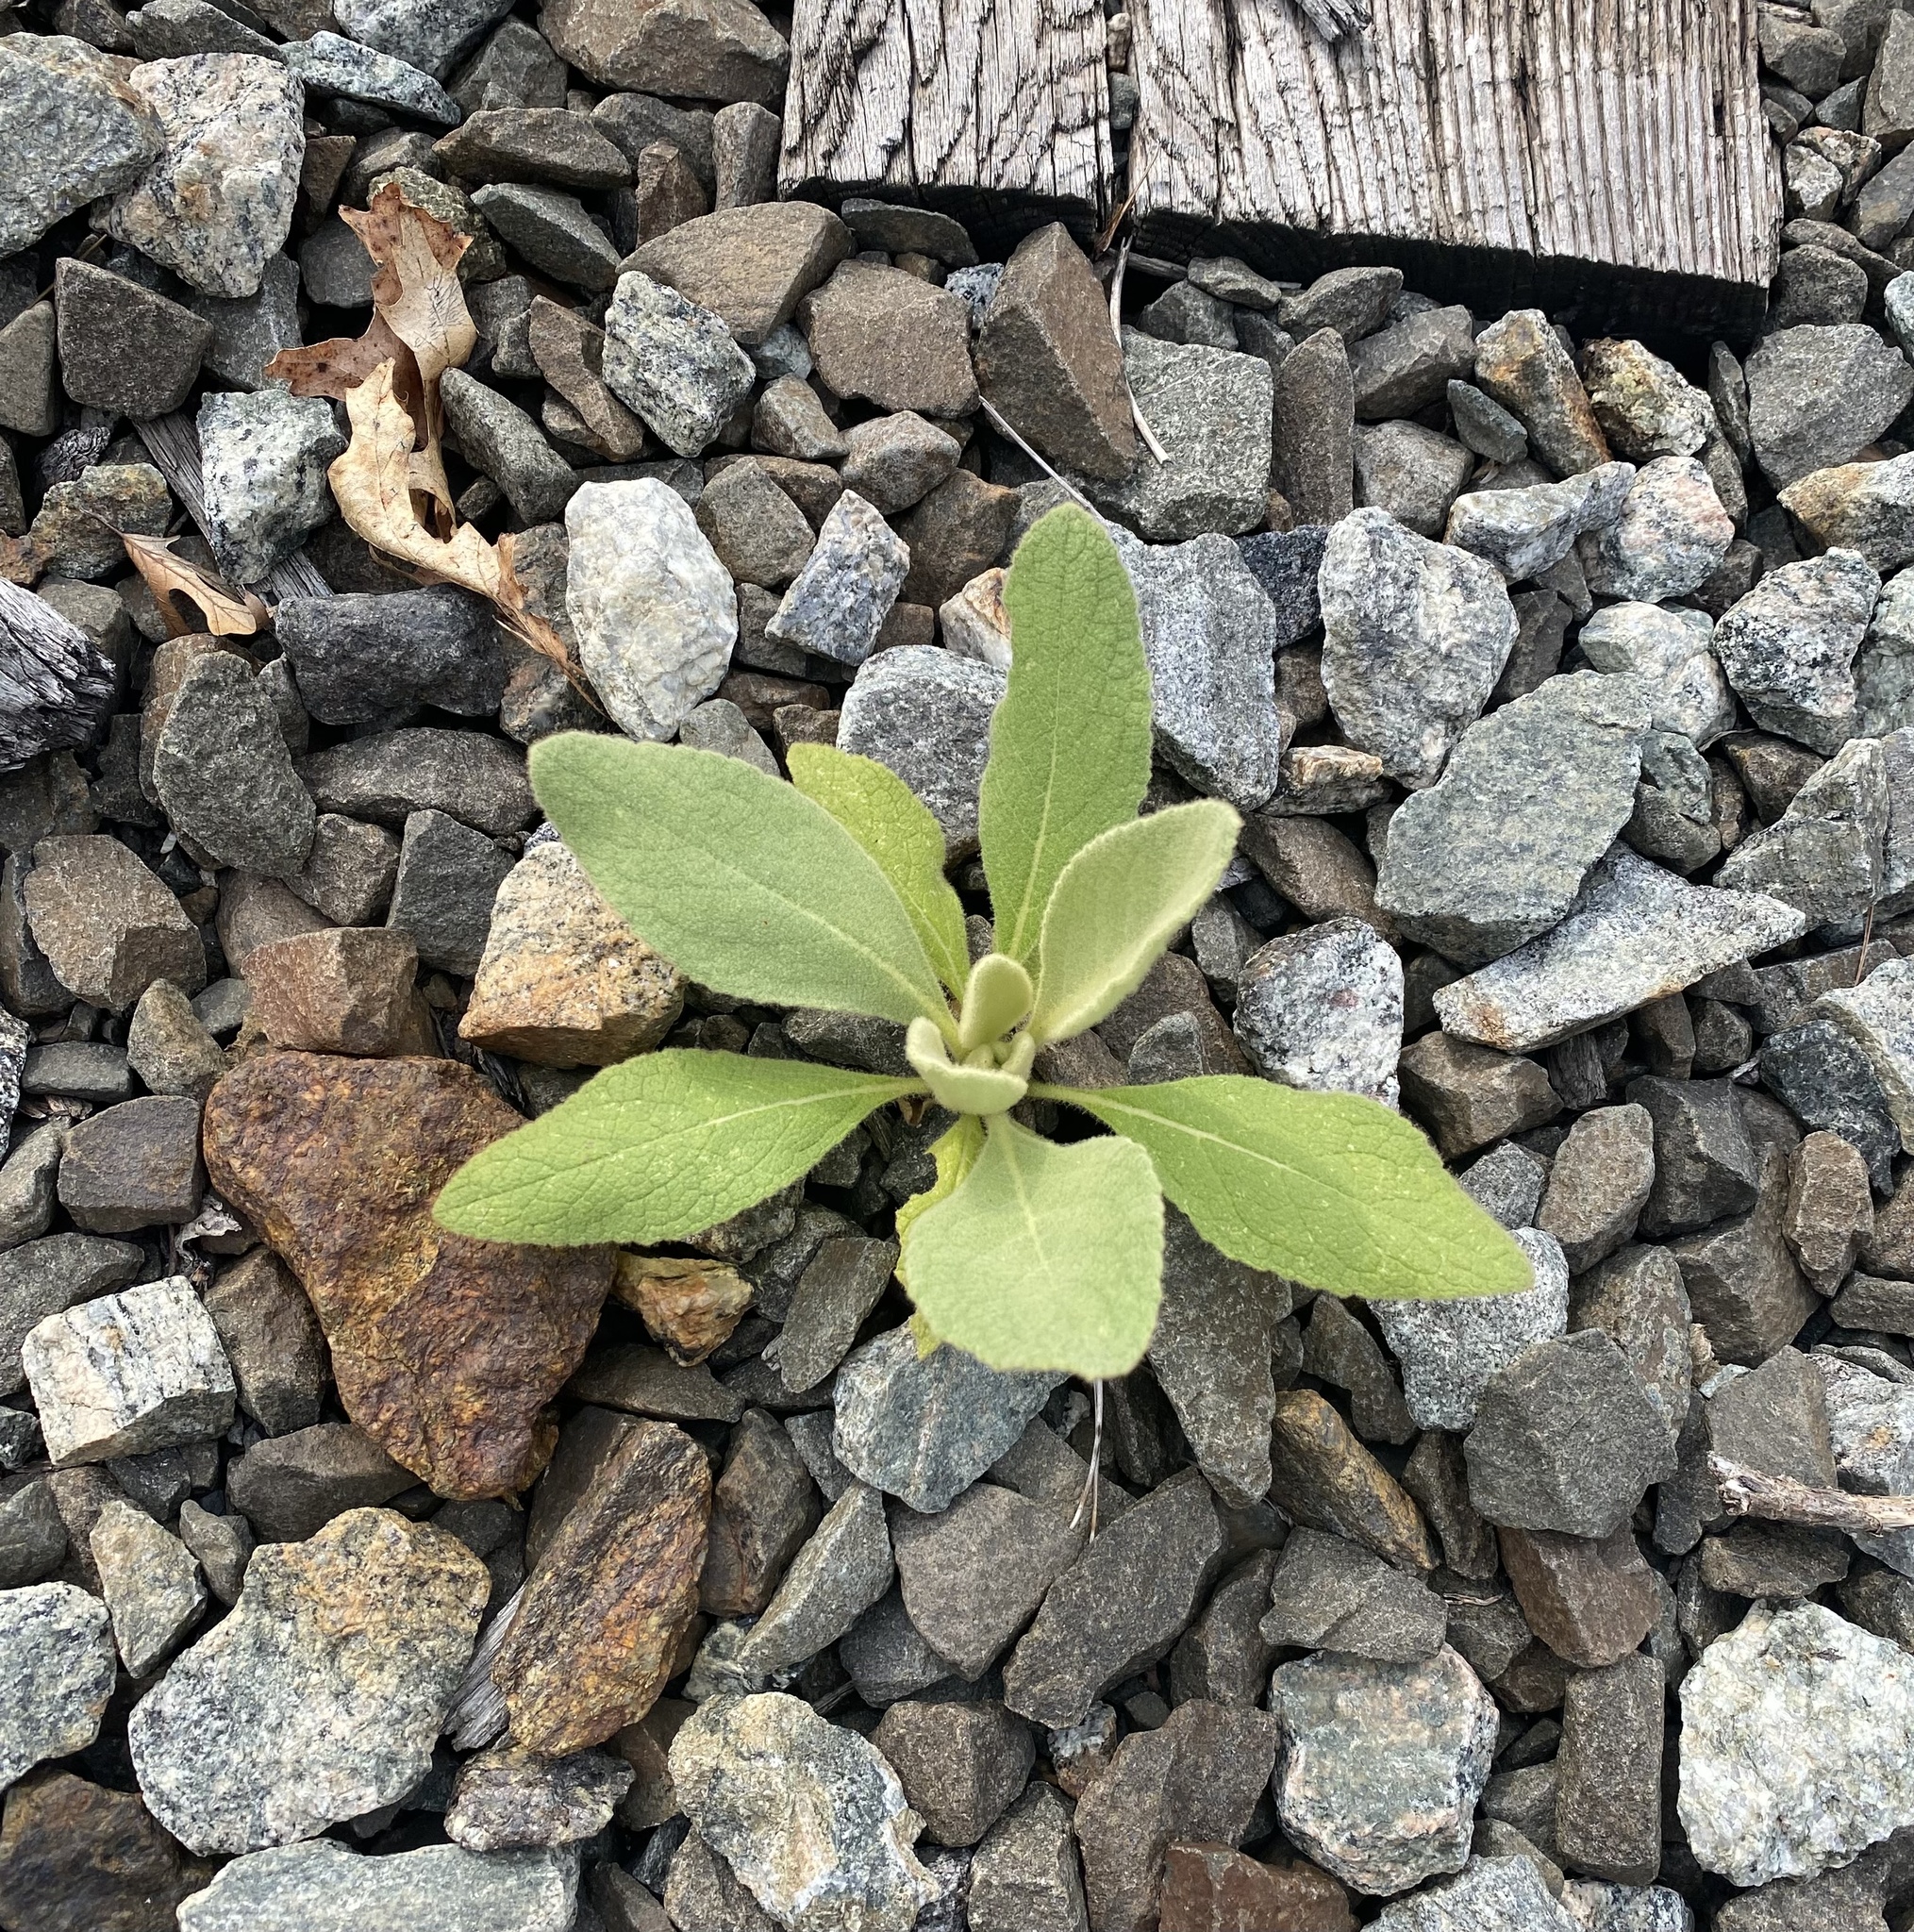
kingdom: Plantae
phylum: Tracheophyta
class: Magnoliopsida
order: Lamiales
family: Scrophulariaceae
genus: Verbascum
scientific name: Verbascum thapsus
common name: Common mullein
